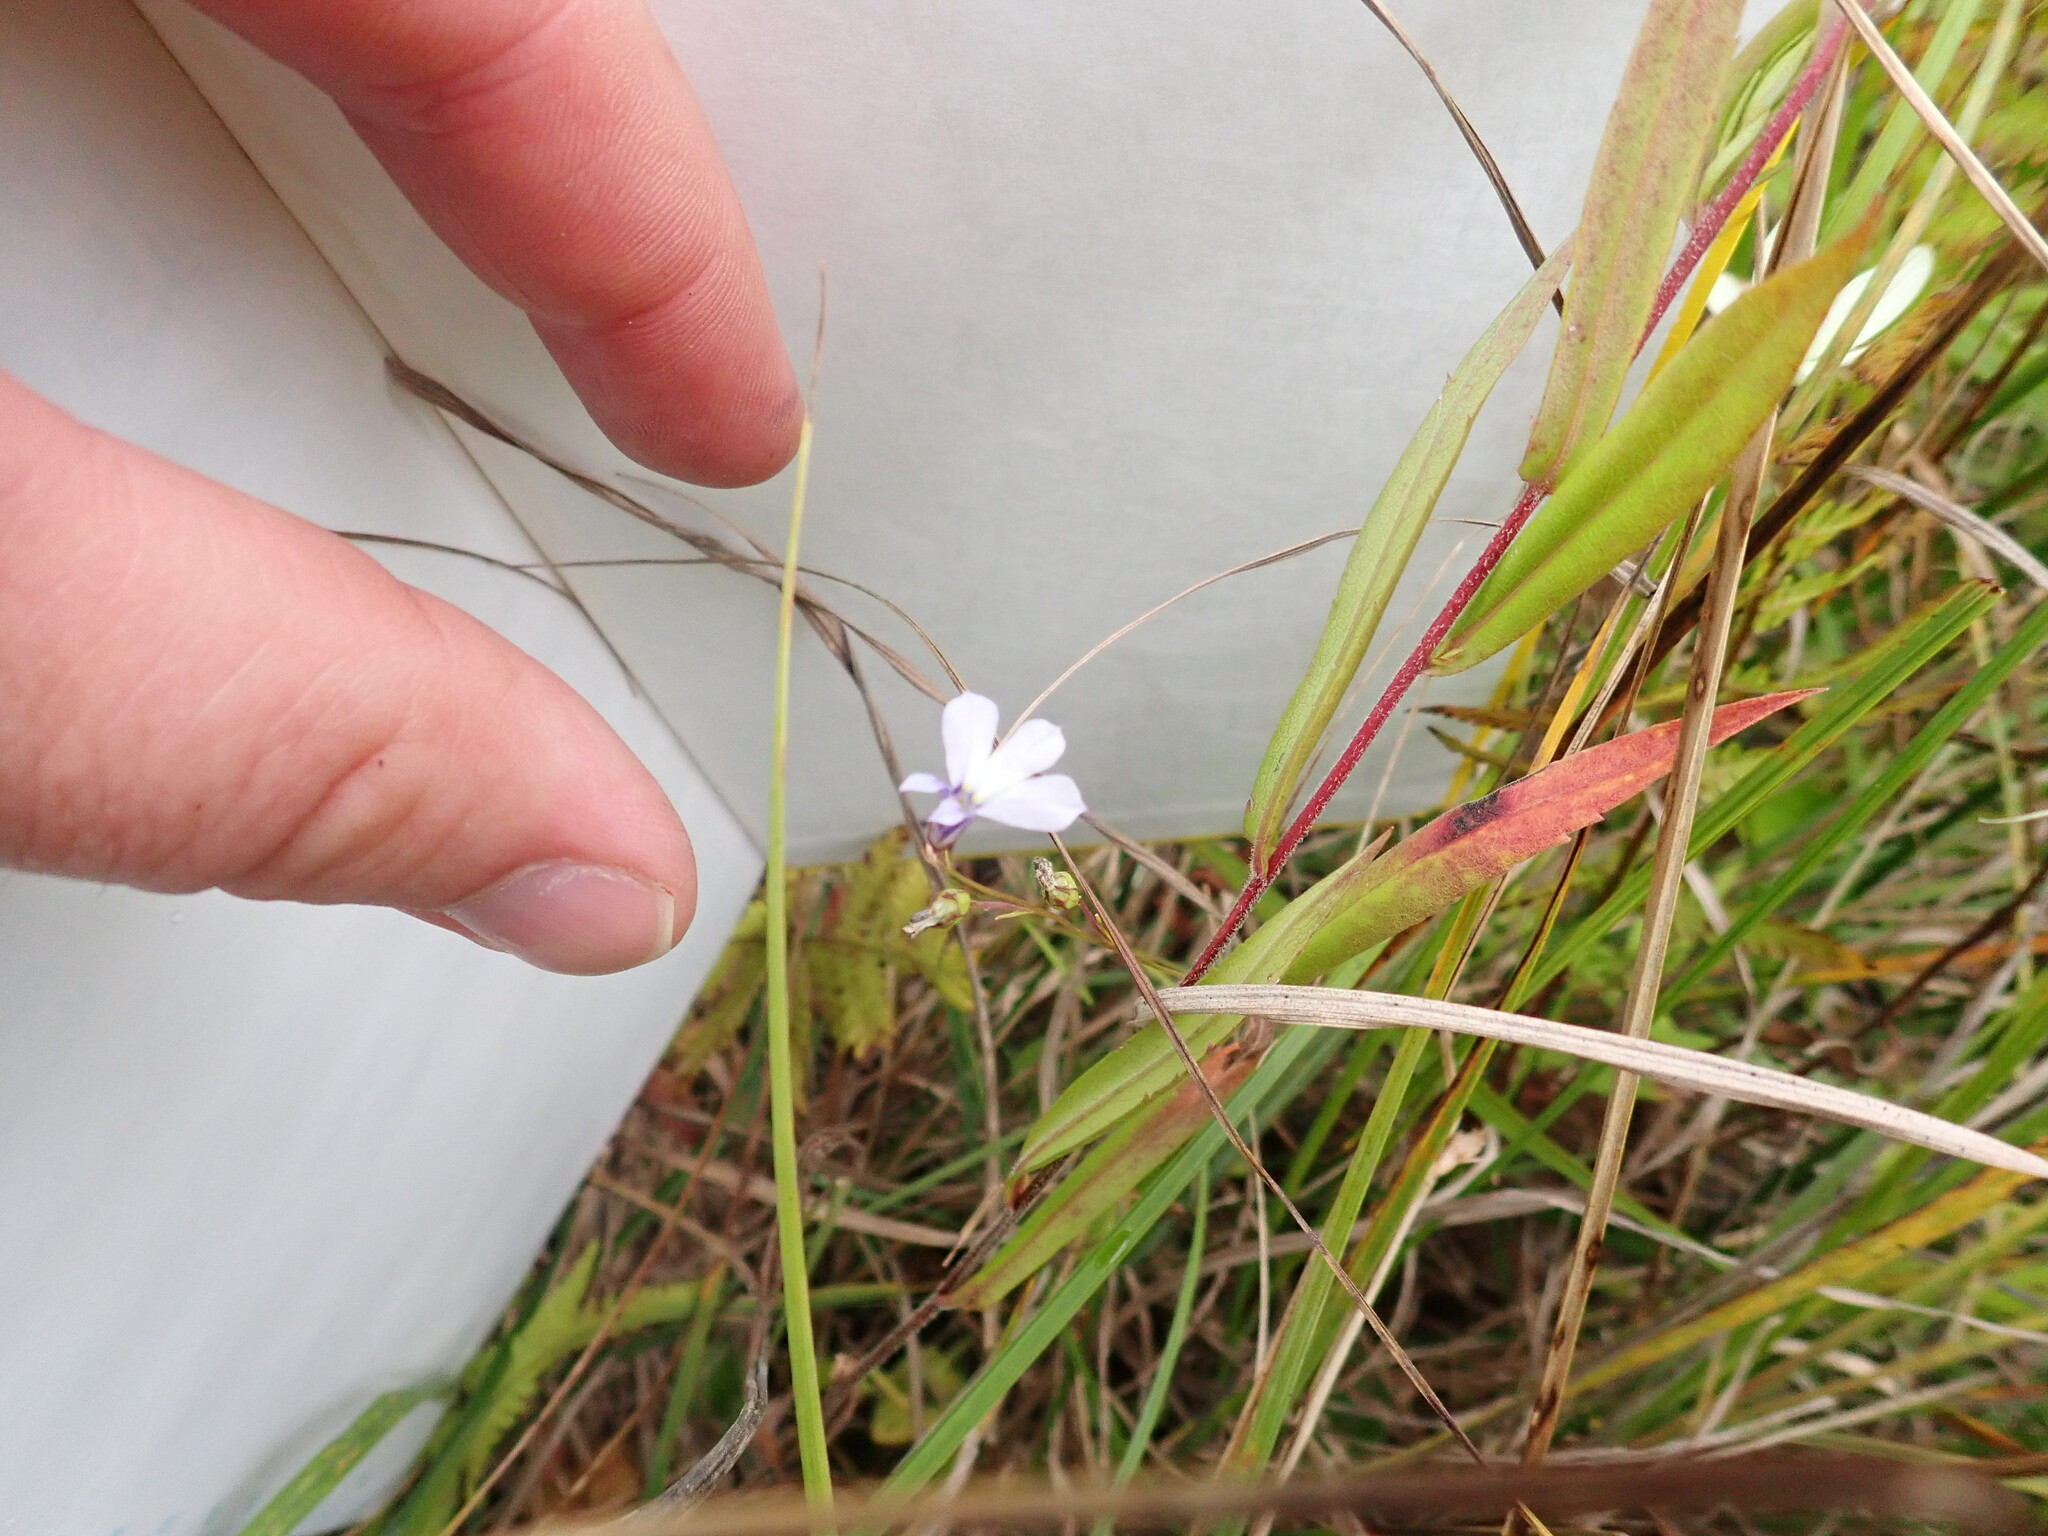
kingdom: Plantae
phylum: Tracheophyta
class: Magnoliopsida
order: Asterales
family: Campanulaceae
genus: Lobelia
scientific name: Lobelia kalmii
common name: Kalm's lobelia
